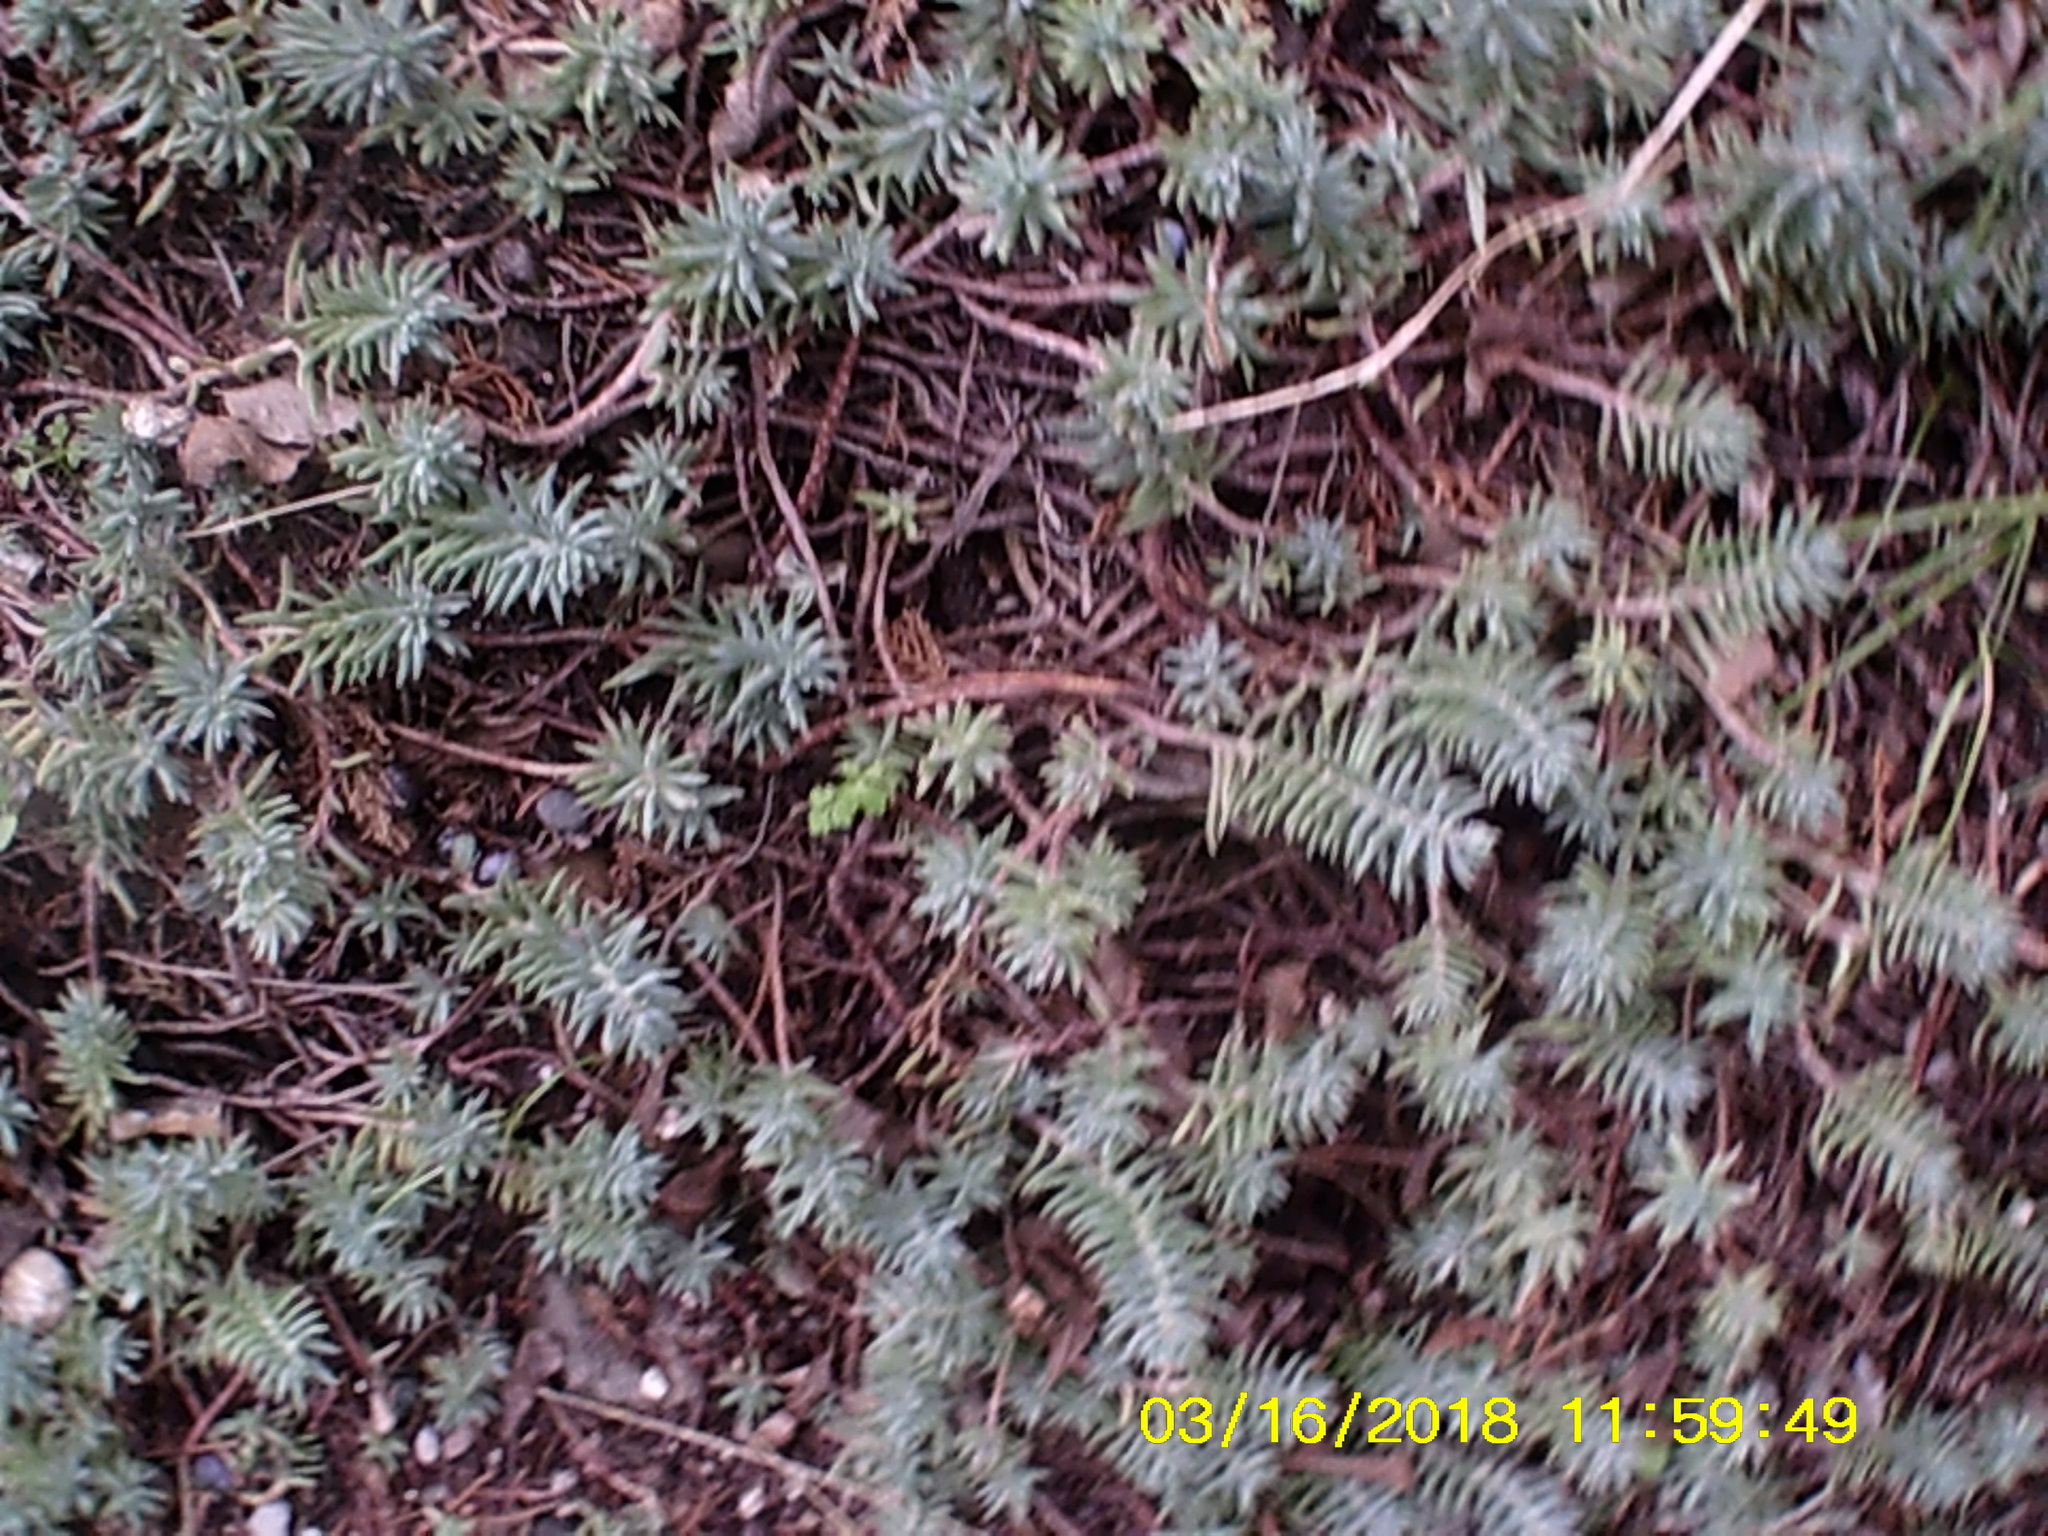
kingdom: Plantae
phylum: Tracheophyta
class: Magnoliopsida
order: Saxifragales
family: Crassulaceae
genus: Petrosedum
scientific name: Petrosedum rupestre
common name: Jenny's stonecrop
